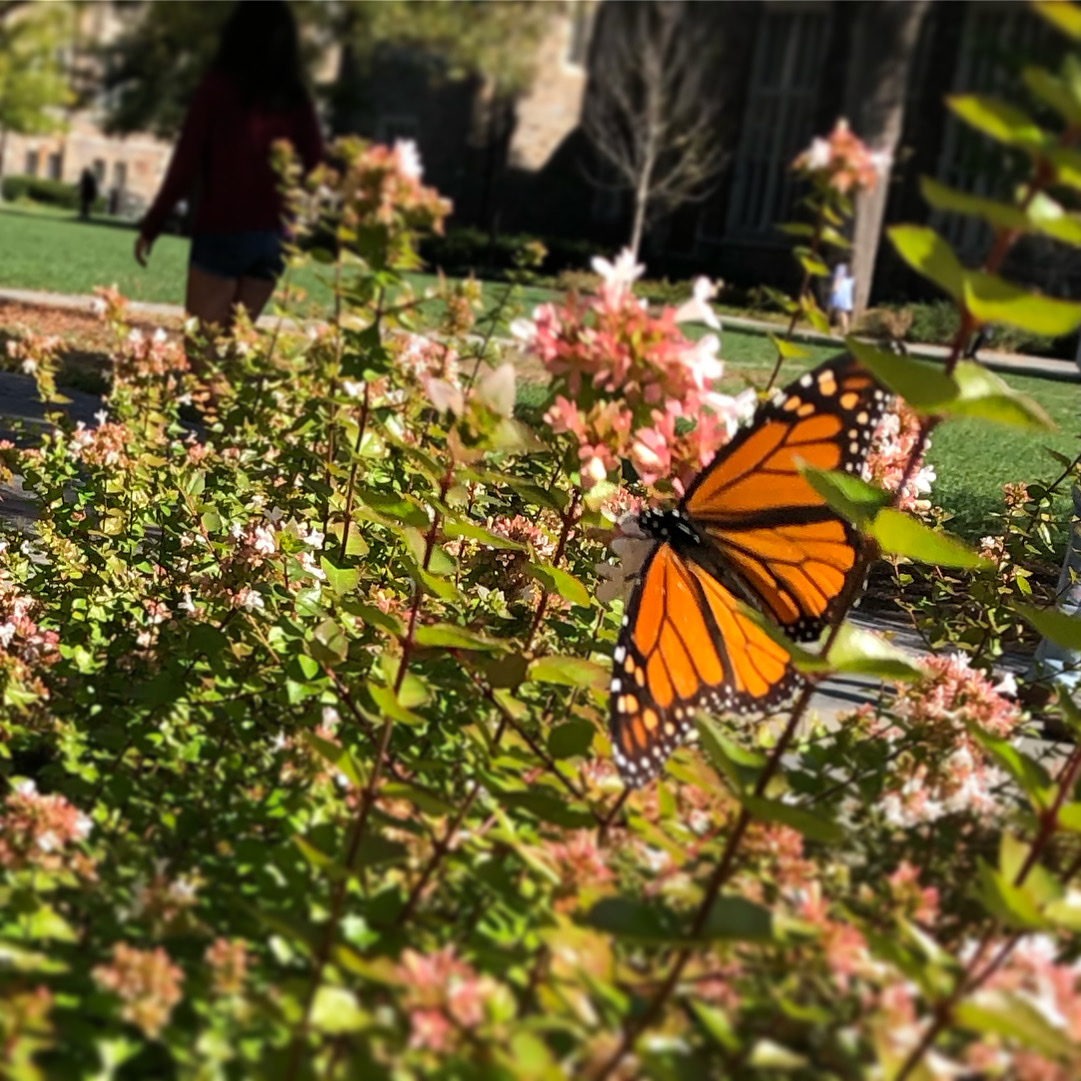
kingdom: Animalia
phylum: Arthropoda
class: Insecta
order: Lepidoptera
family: Nymphalidae
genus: Danaus
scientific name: Danaus plexippus
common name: Monarch
